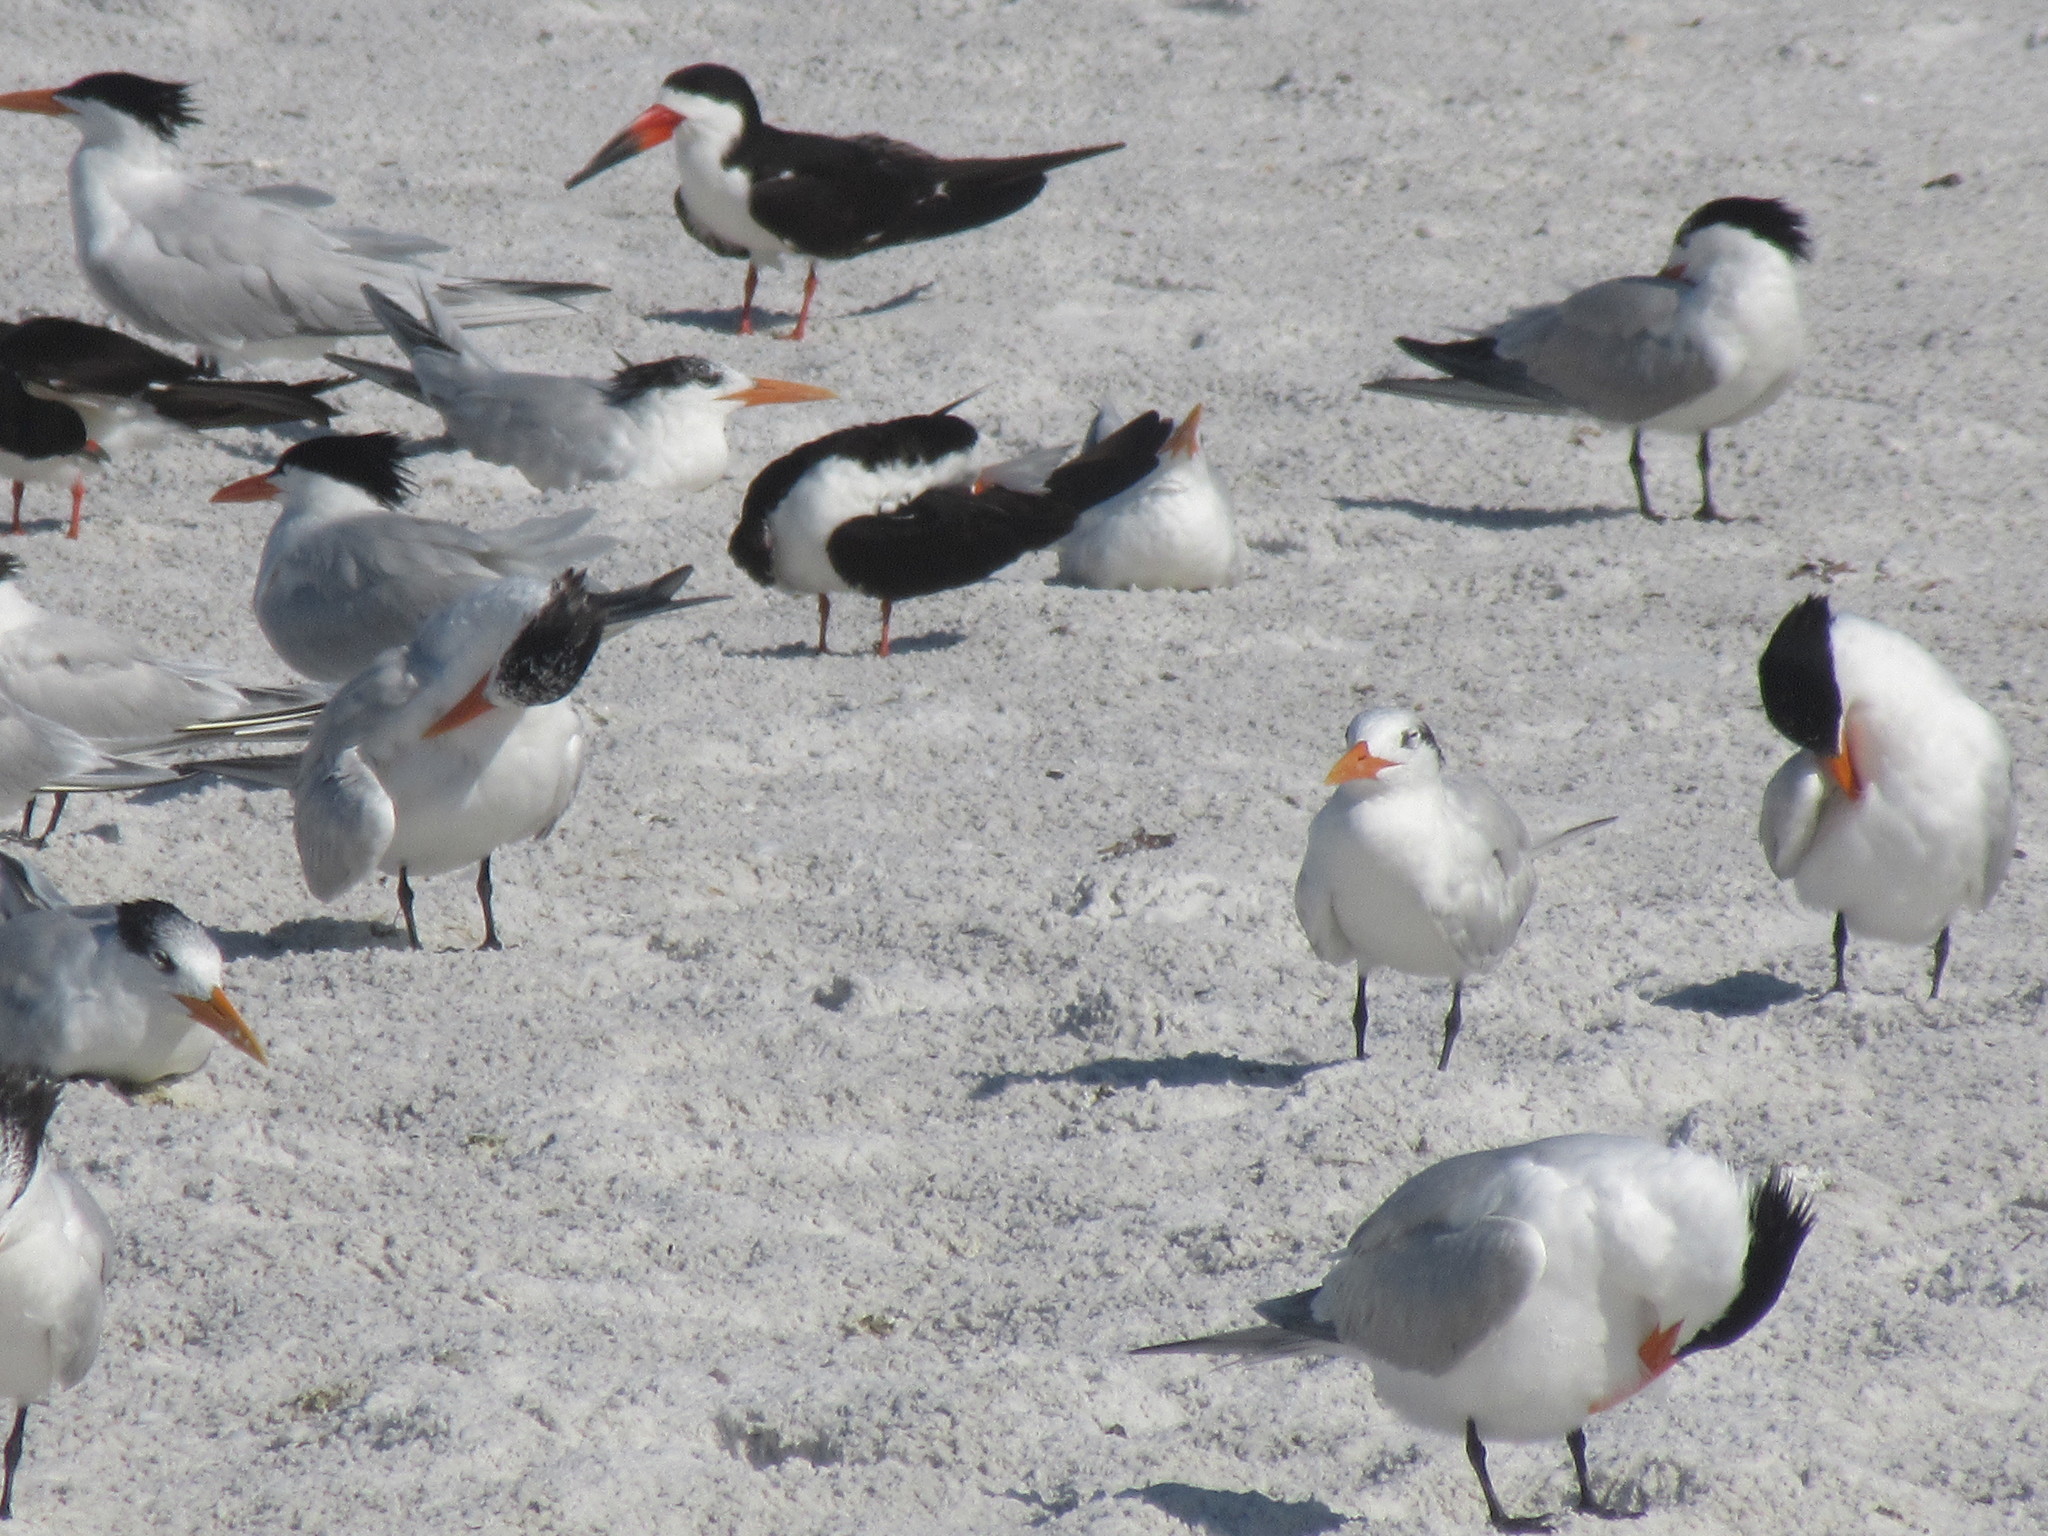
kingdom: Animalia
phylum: Chordata
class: Aves
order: Charadriiformes
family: Laridae
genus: Thalasseus
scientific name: Thalasseus maximus
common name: Royal tern
